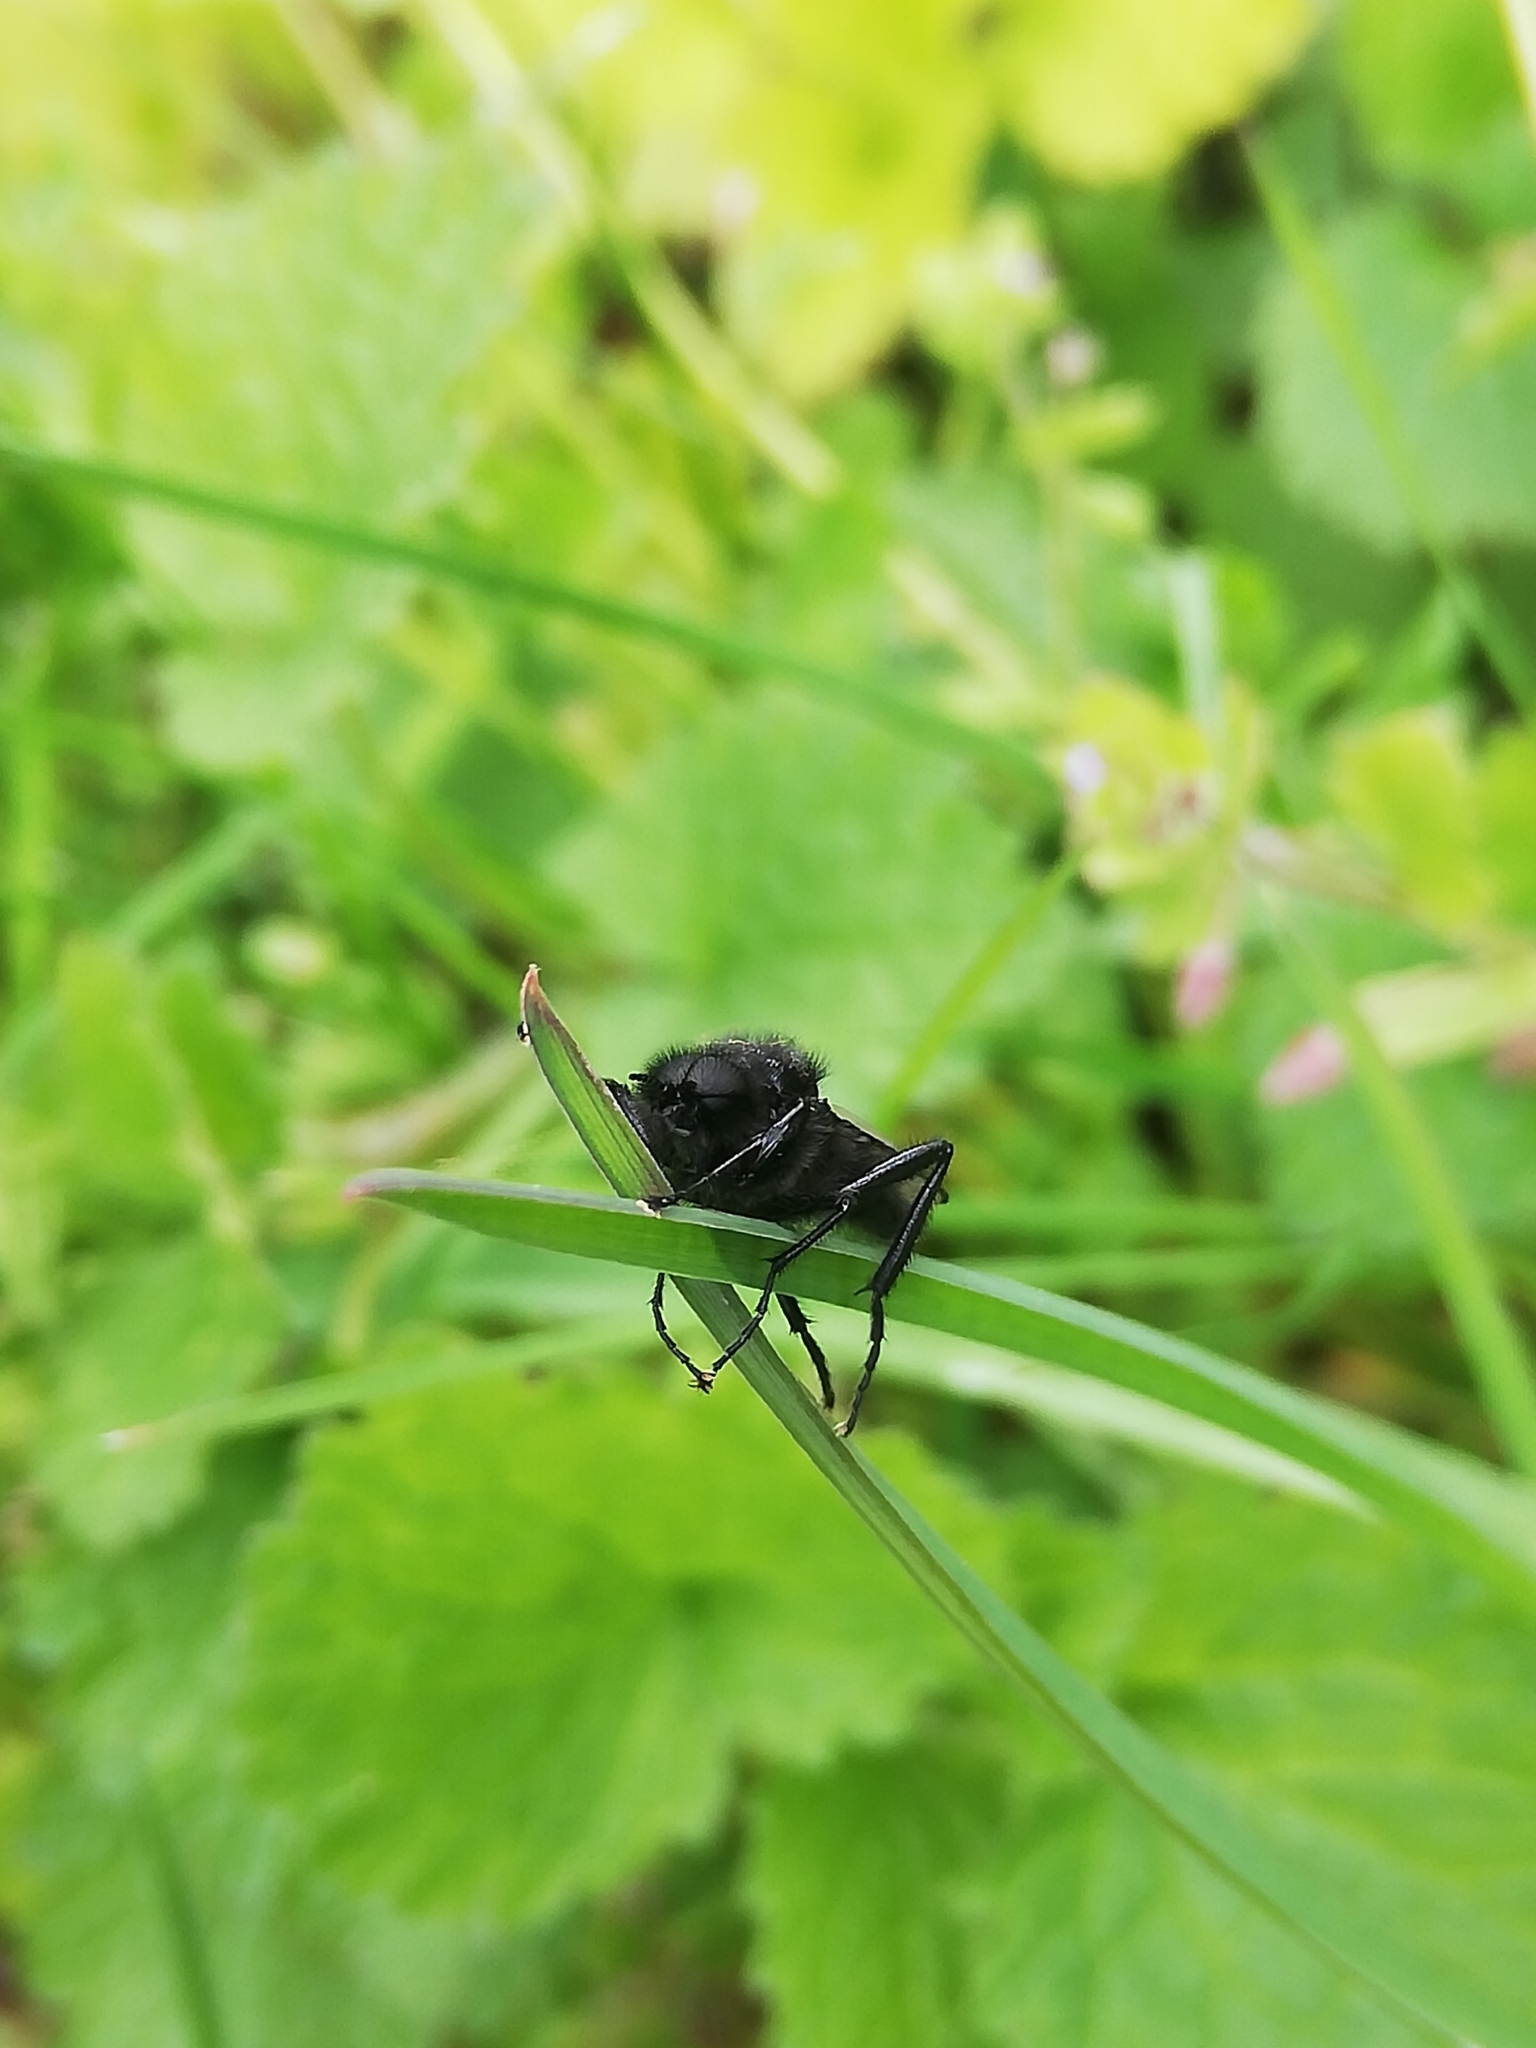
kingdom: Animalia
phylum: Arthropoda
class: Insecta
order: Diptera
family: Bibionidae
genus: Bibio
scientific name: Bibio marci
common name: St marks fly
